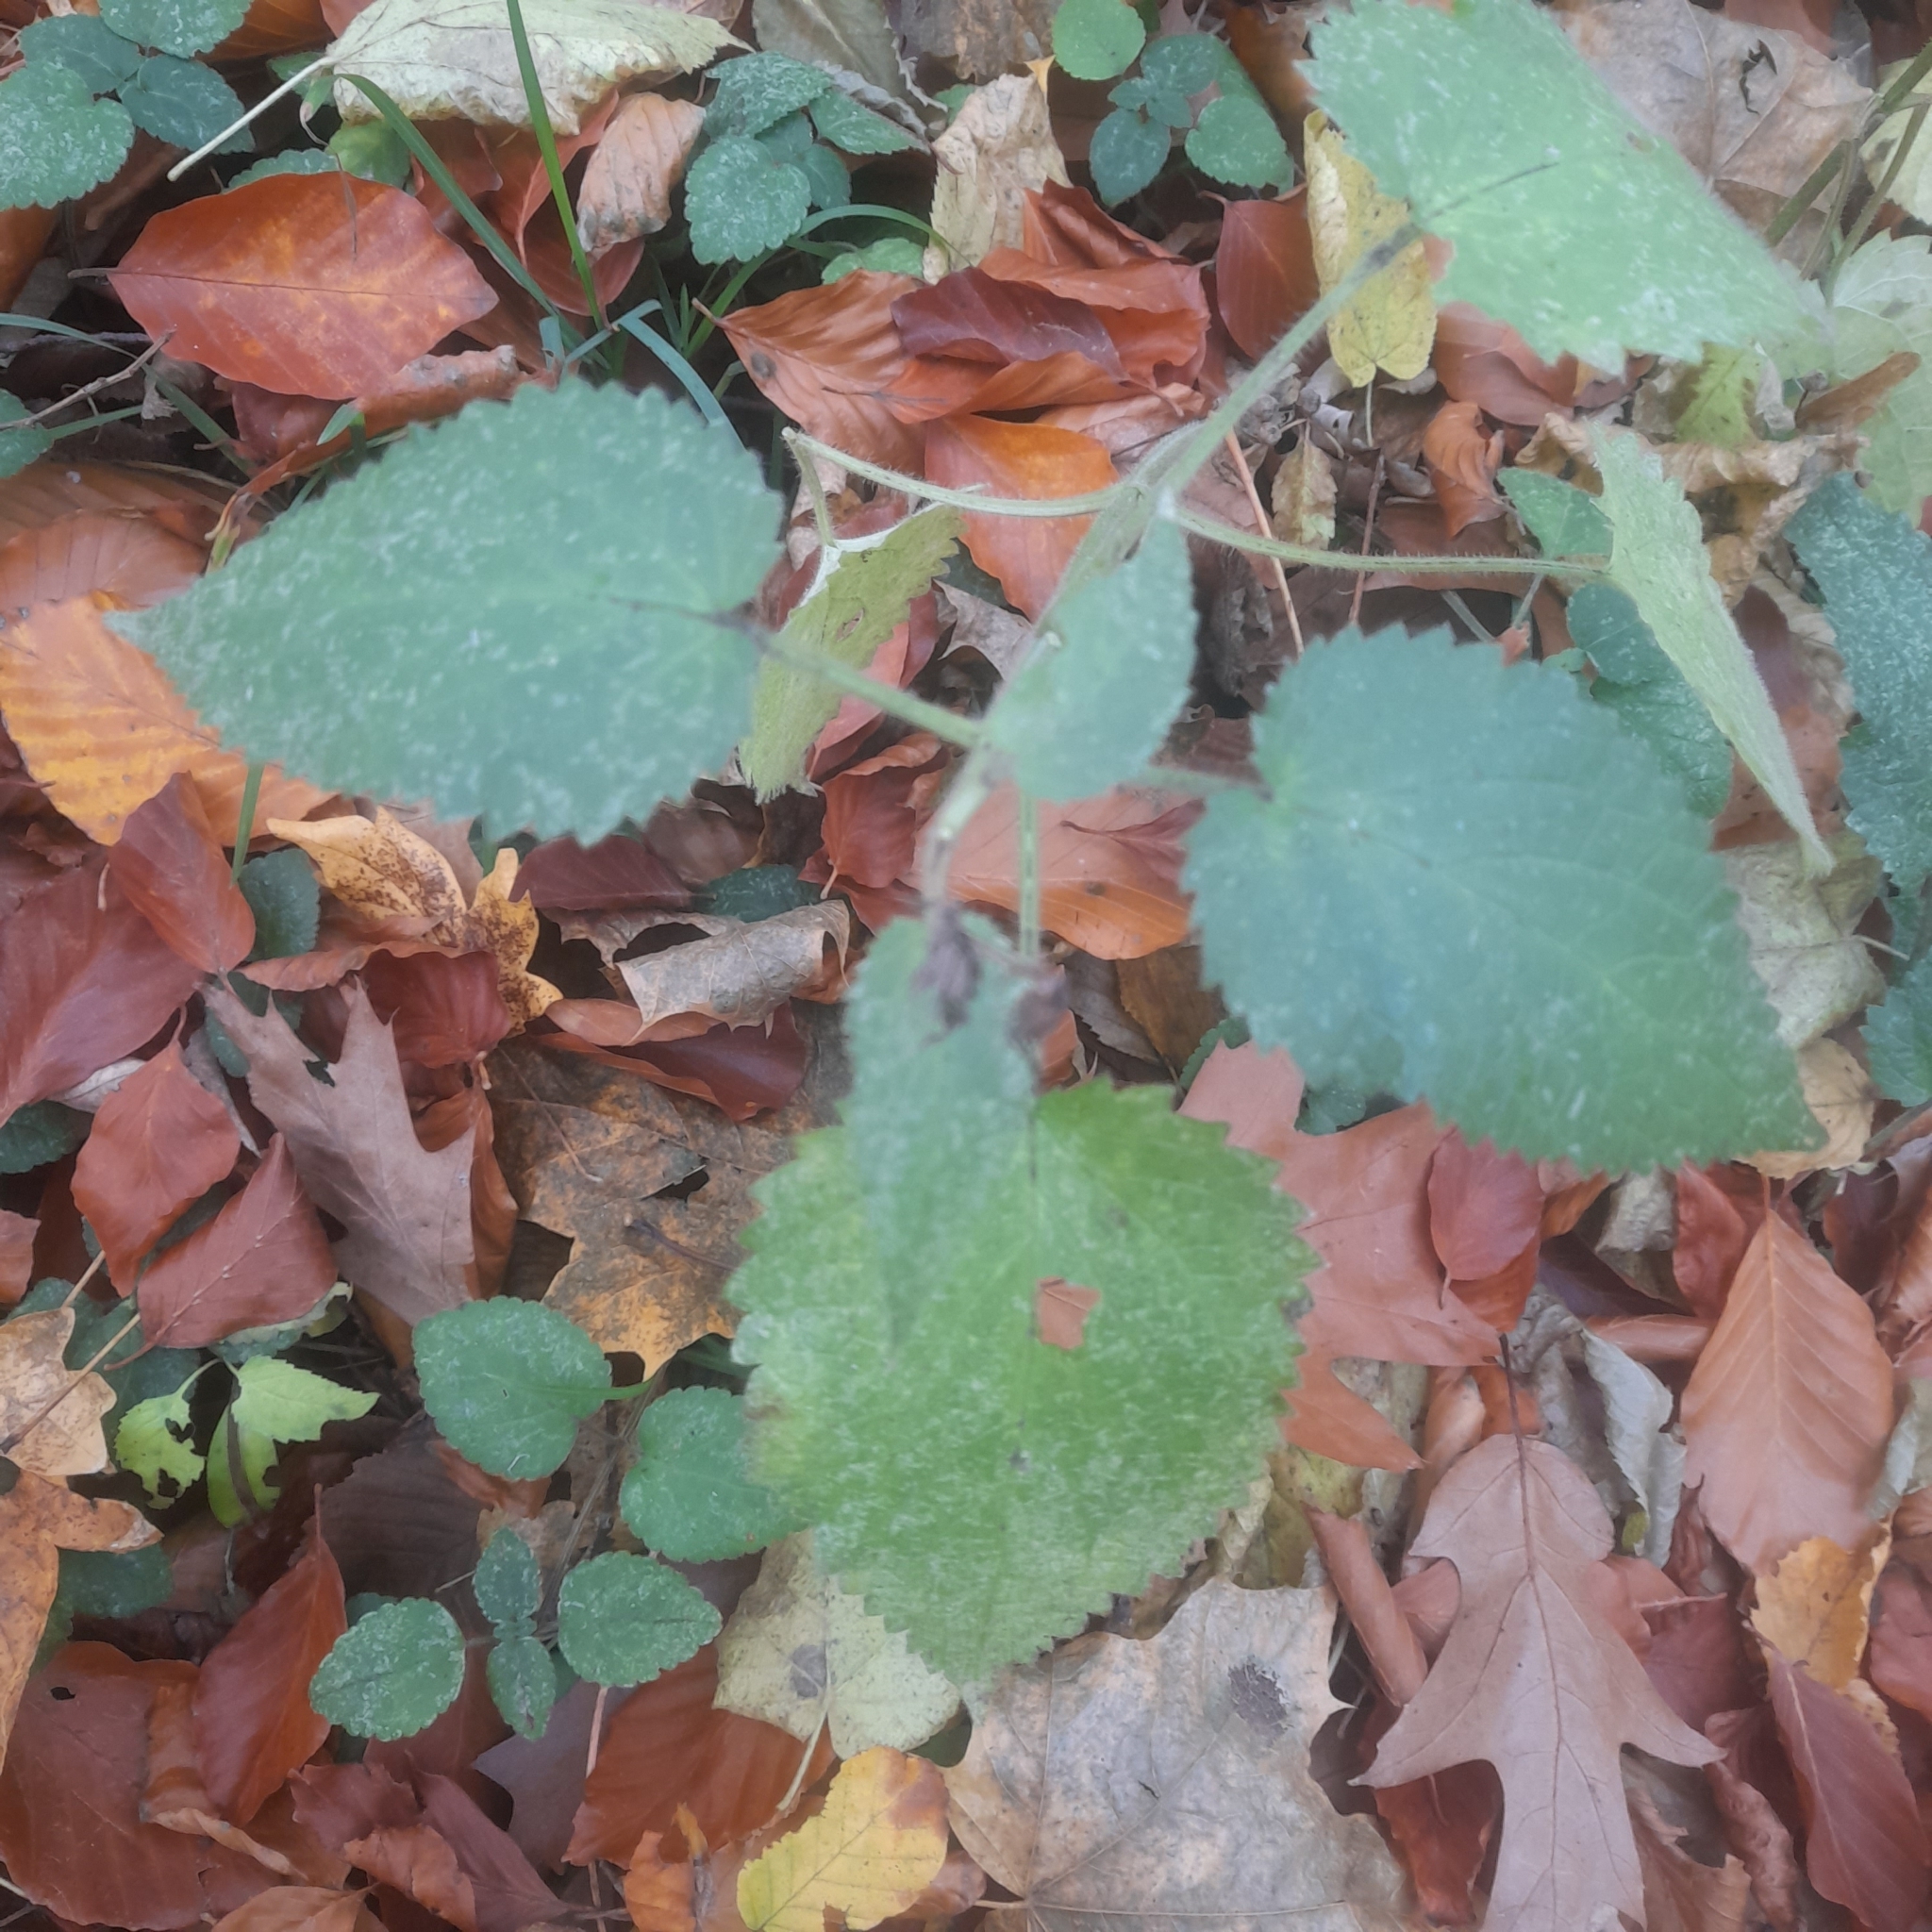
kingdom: Plantae
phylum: Tracheophyta
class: Magnoliopsida
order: Lamiales
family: Lamiaceae
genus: Stachys
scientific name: Stachys sylvatica
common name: Hedge woundwort
